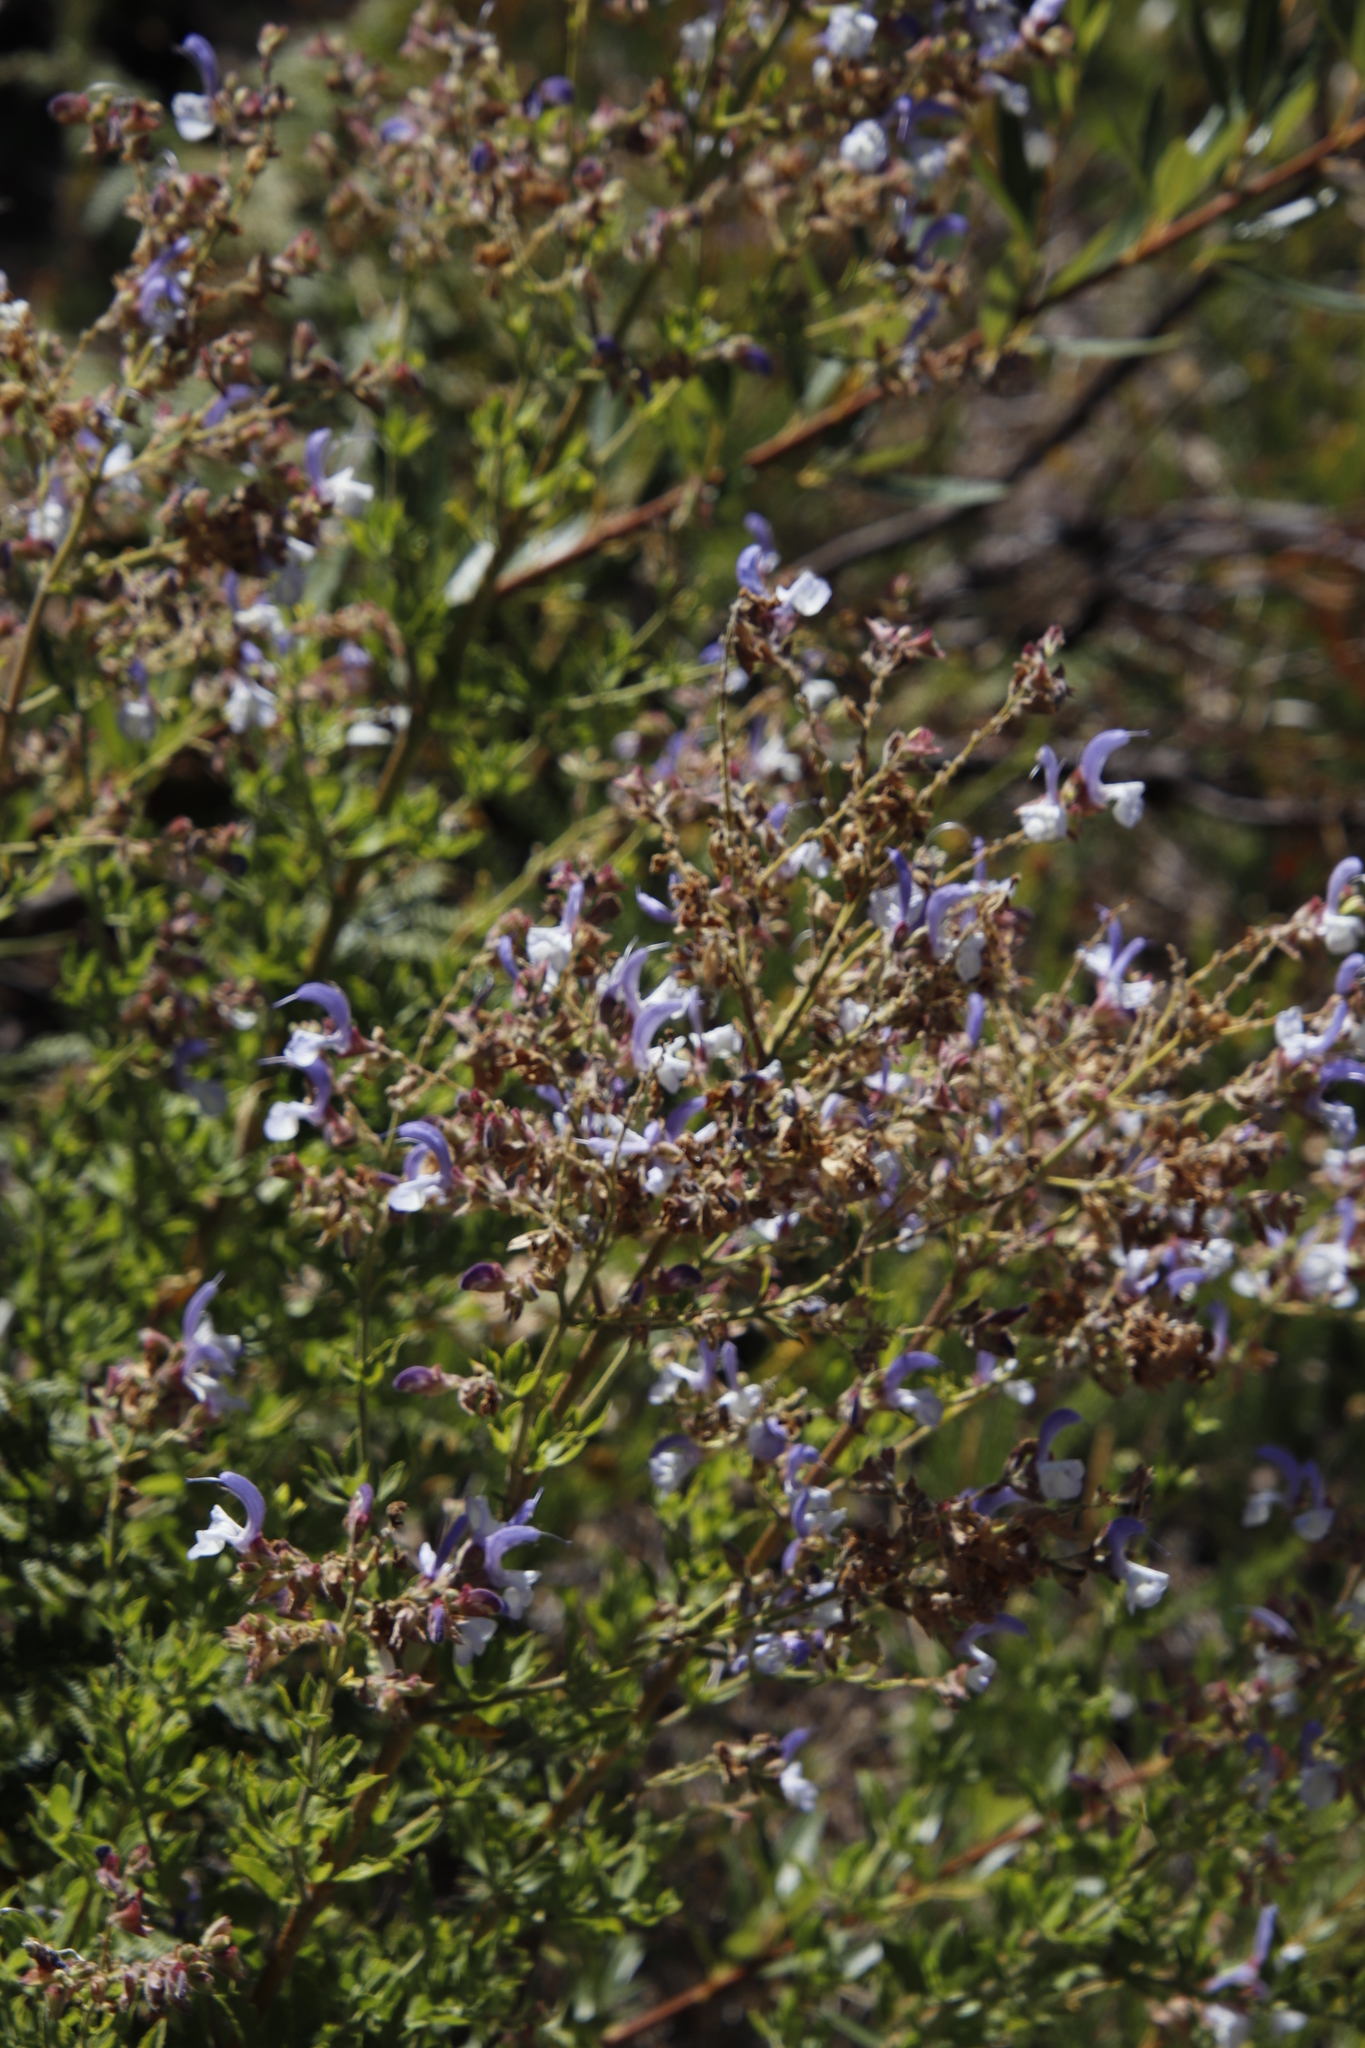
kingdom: Plantae
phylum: Tracheophyta
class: Magnoliopsida
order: Lamiales
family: Lamiaceae
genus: Salvia
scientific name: Salvia chamelaeagnea
